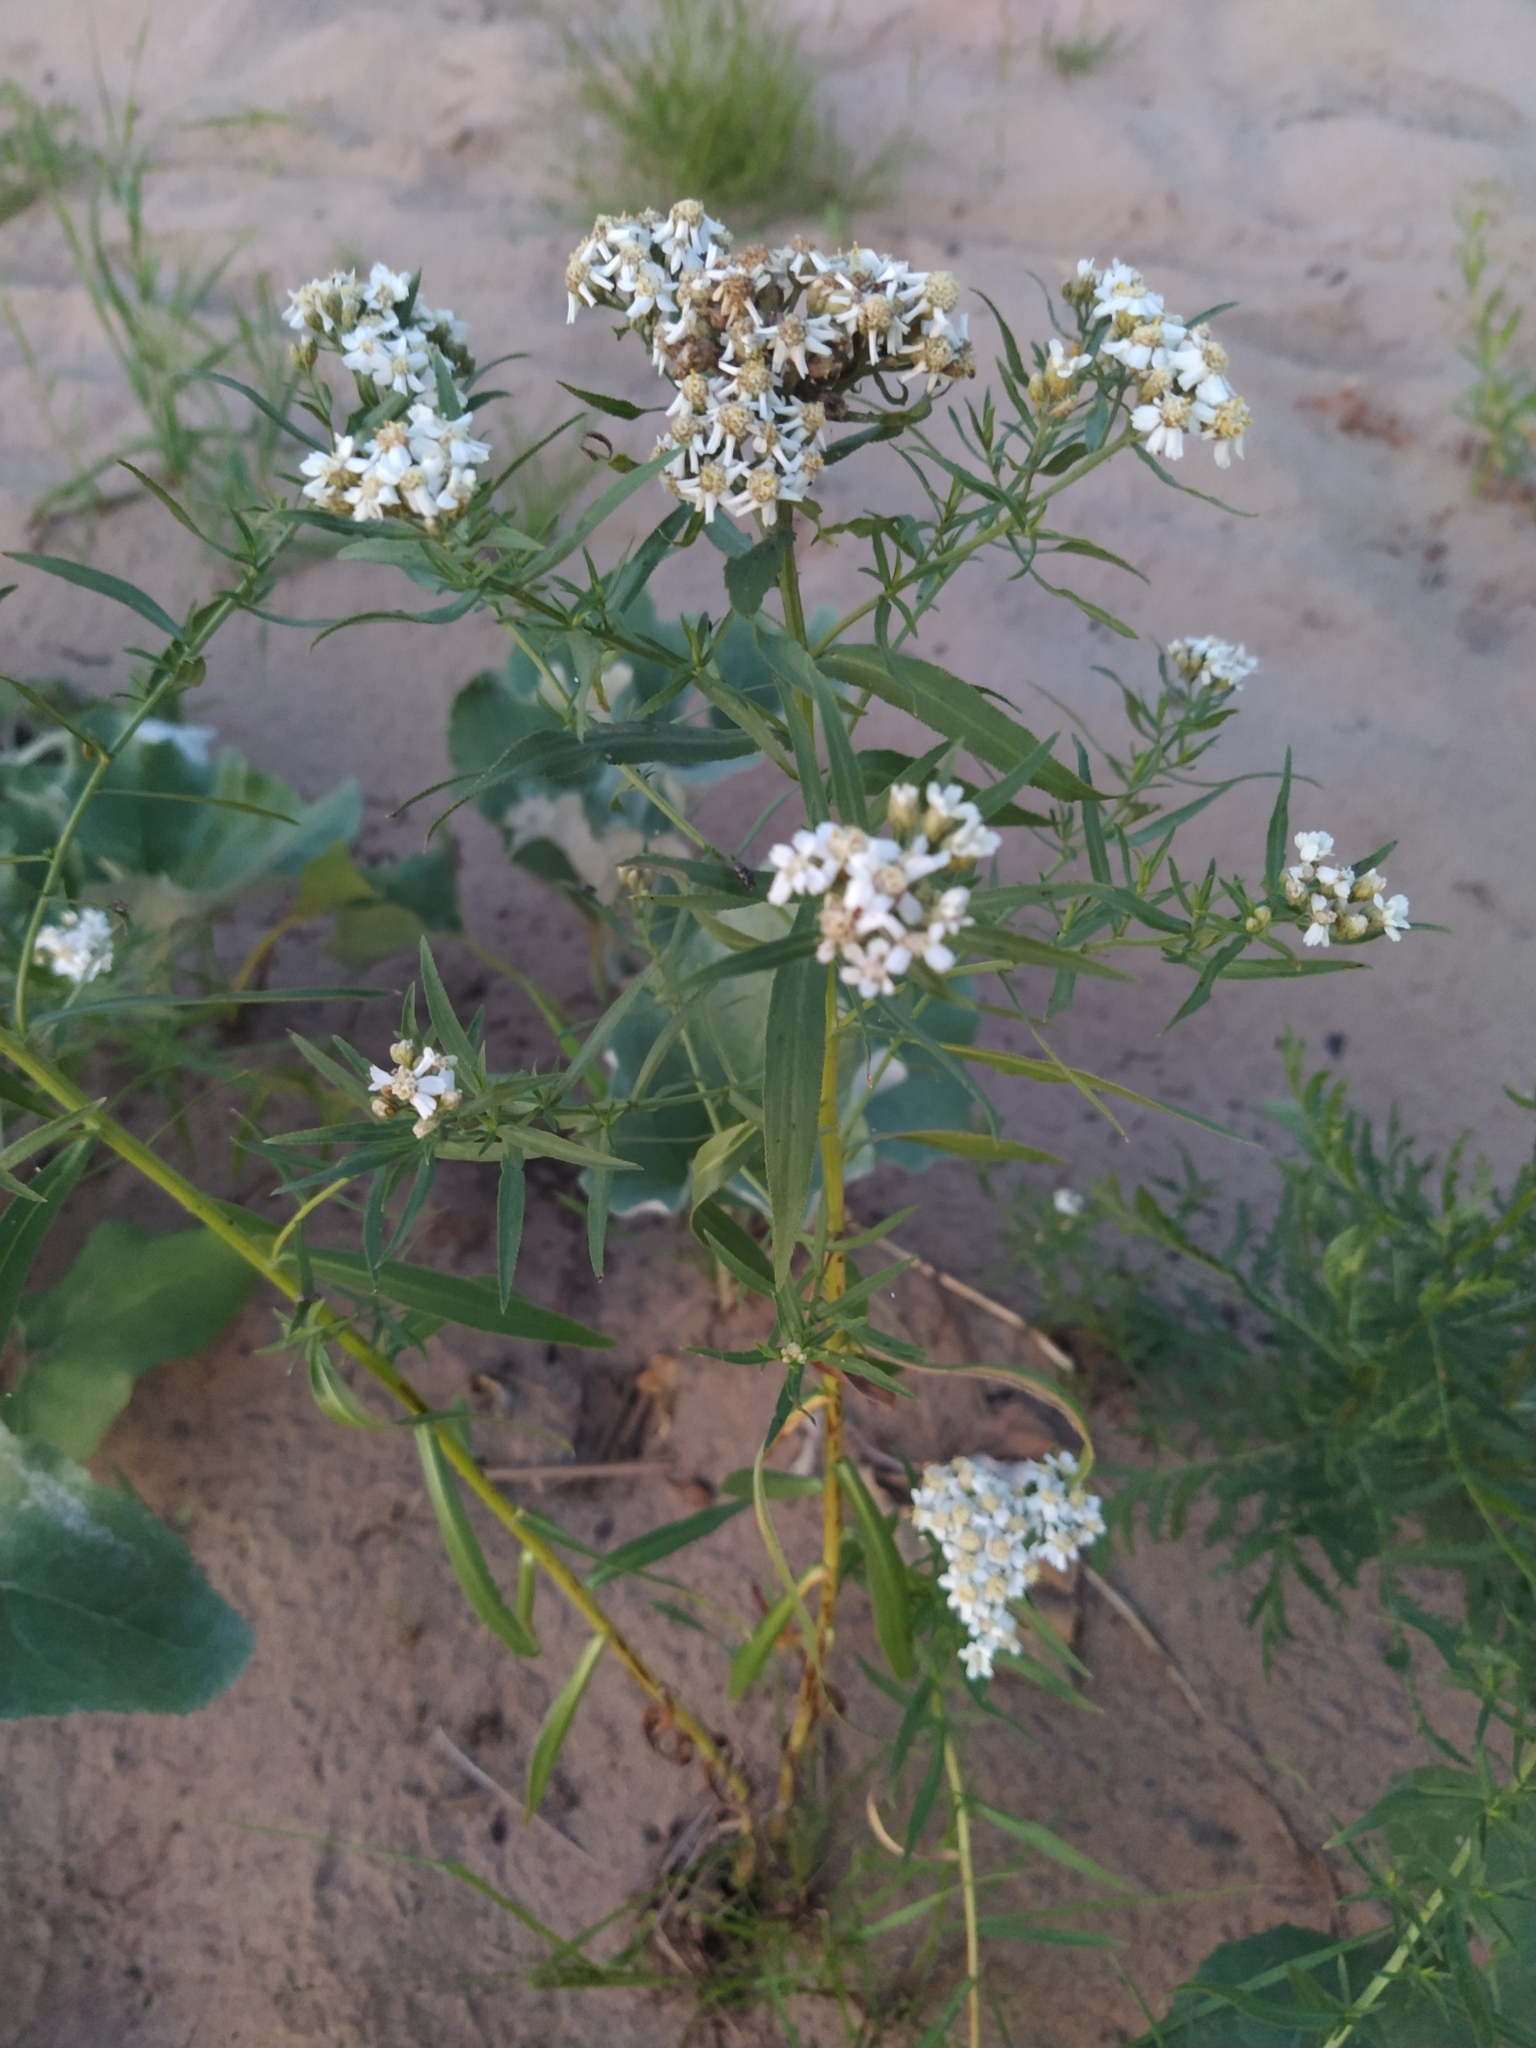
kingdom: Plantae
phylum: Tracheophyta
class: Magnoliopsida
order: Asterales
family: Asteraceae
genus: Achillea
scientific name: Achillea salicifolia
